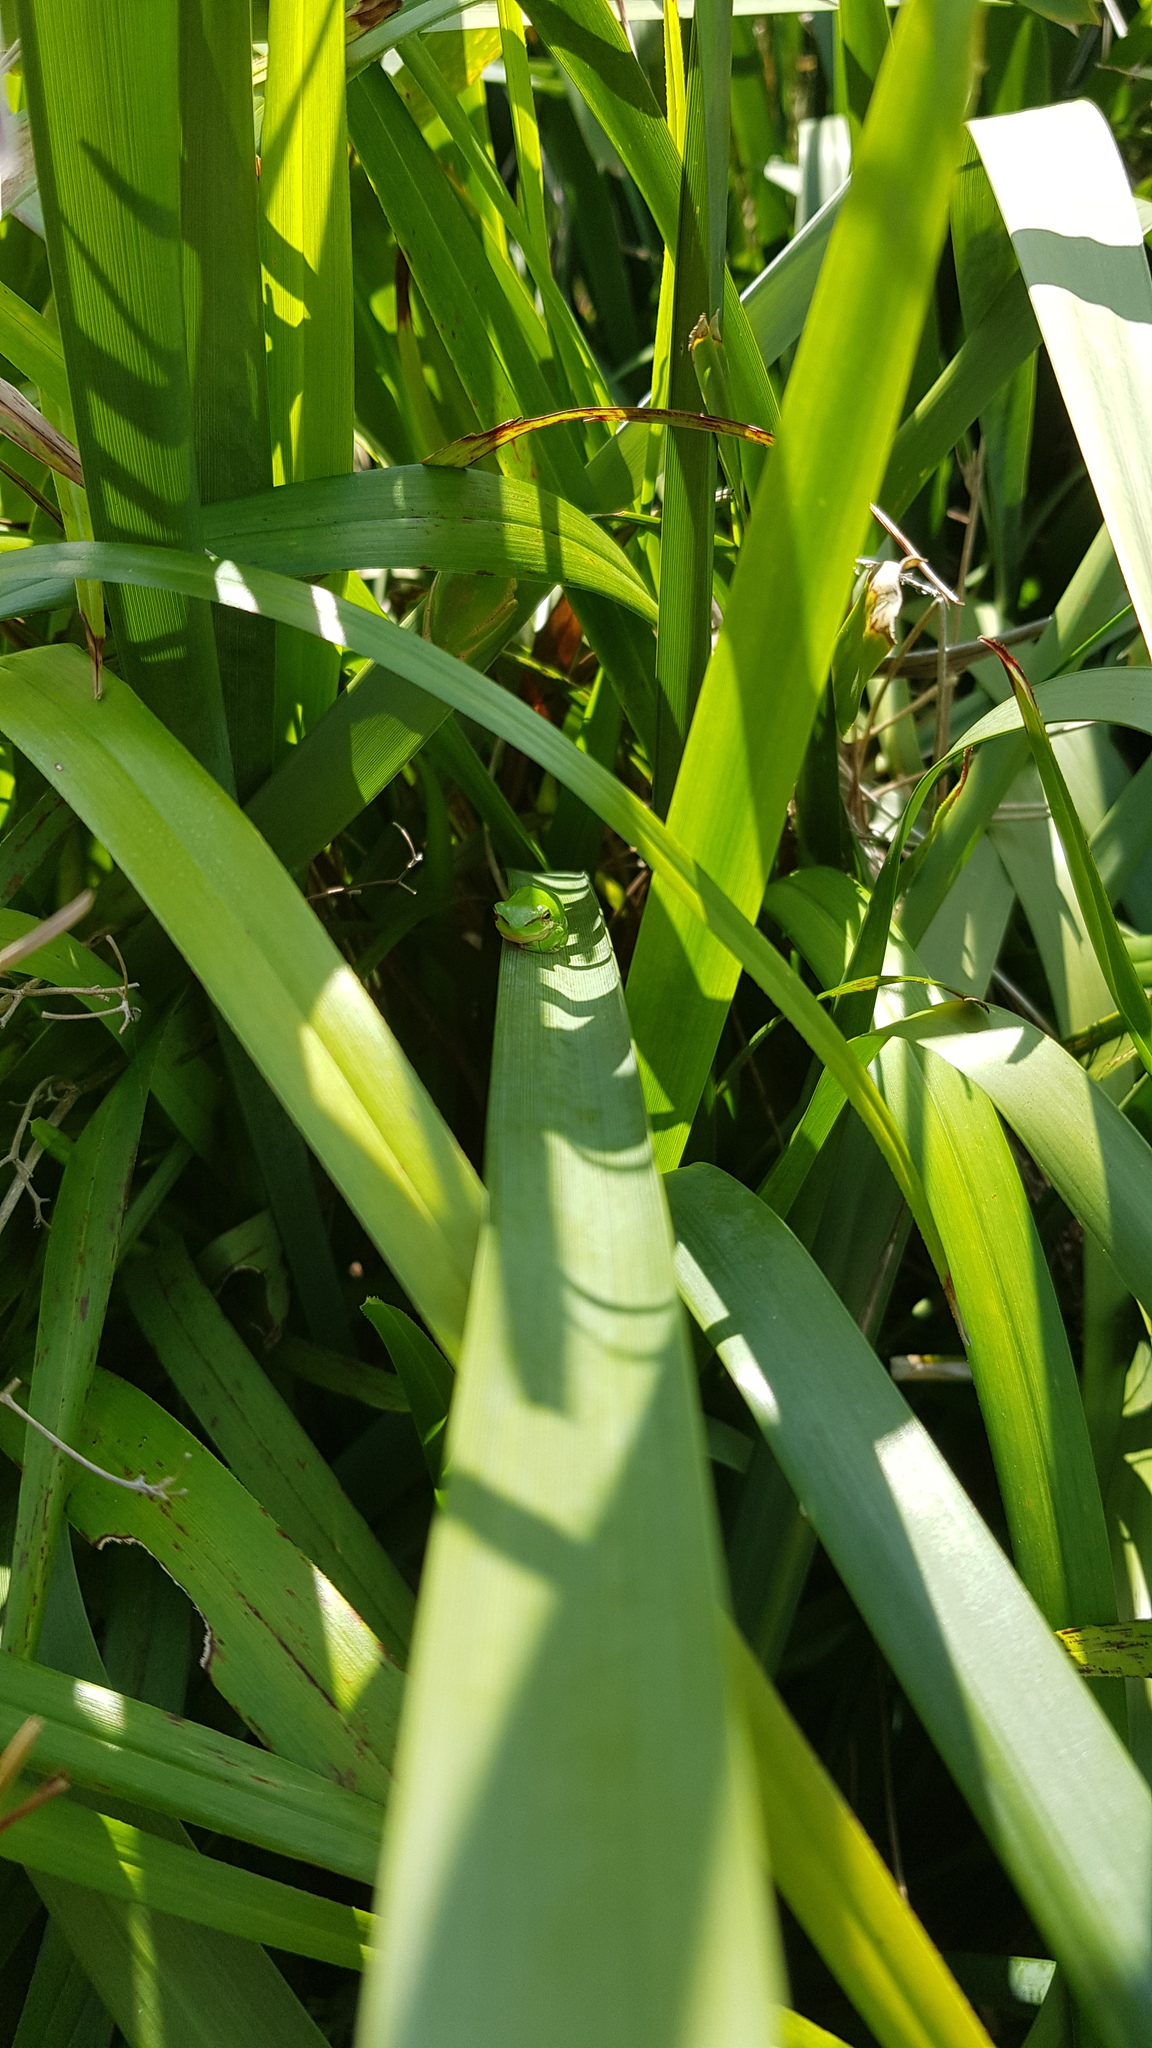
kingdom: Animalia
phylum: Chordata
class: Amphibia
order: Anura
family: Pelodryadidae
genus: Litoria
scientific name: Litoria fallax
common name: Eastern dwarf treefrog
